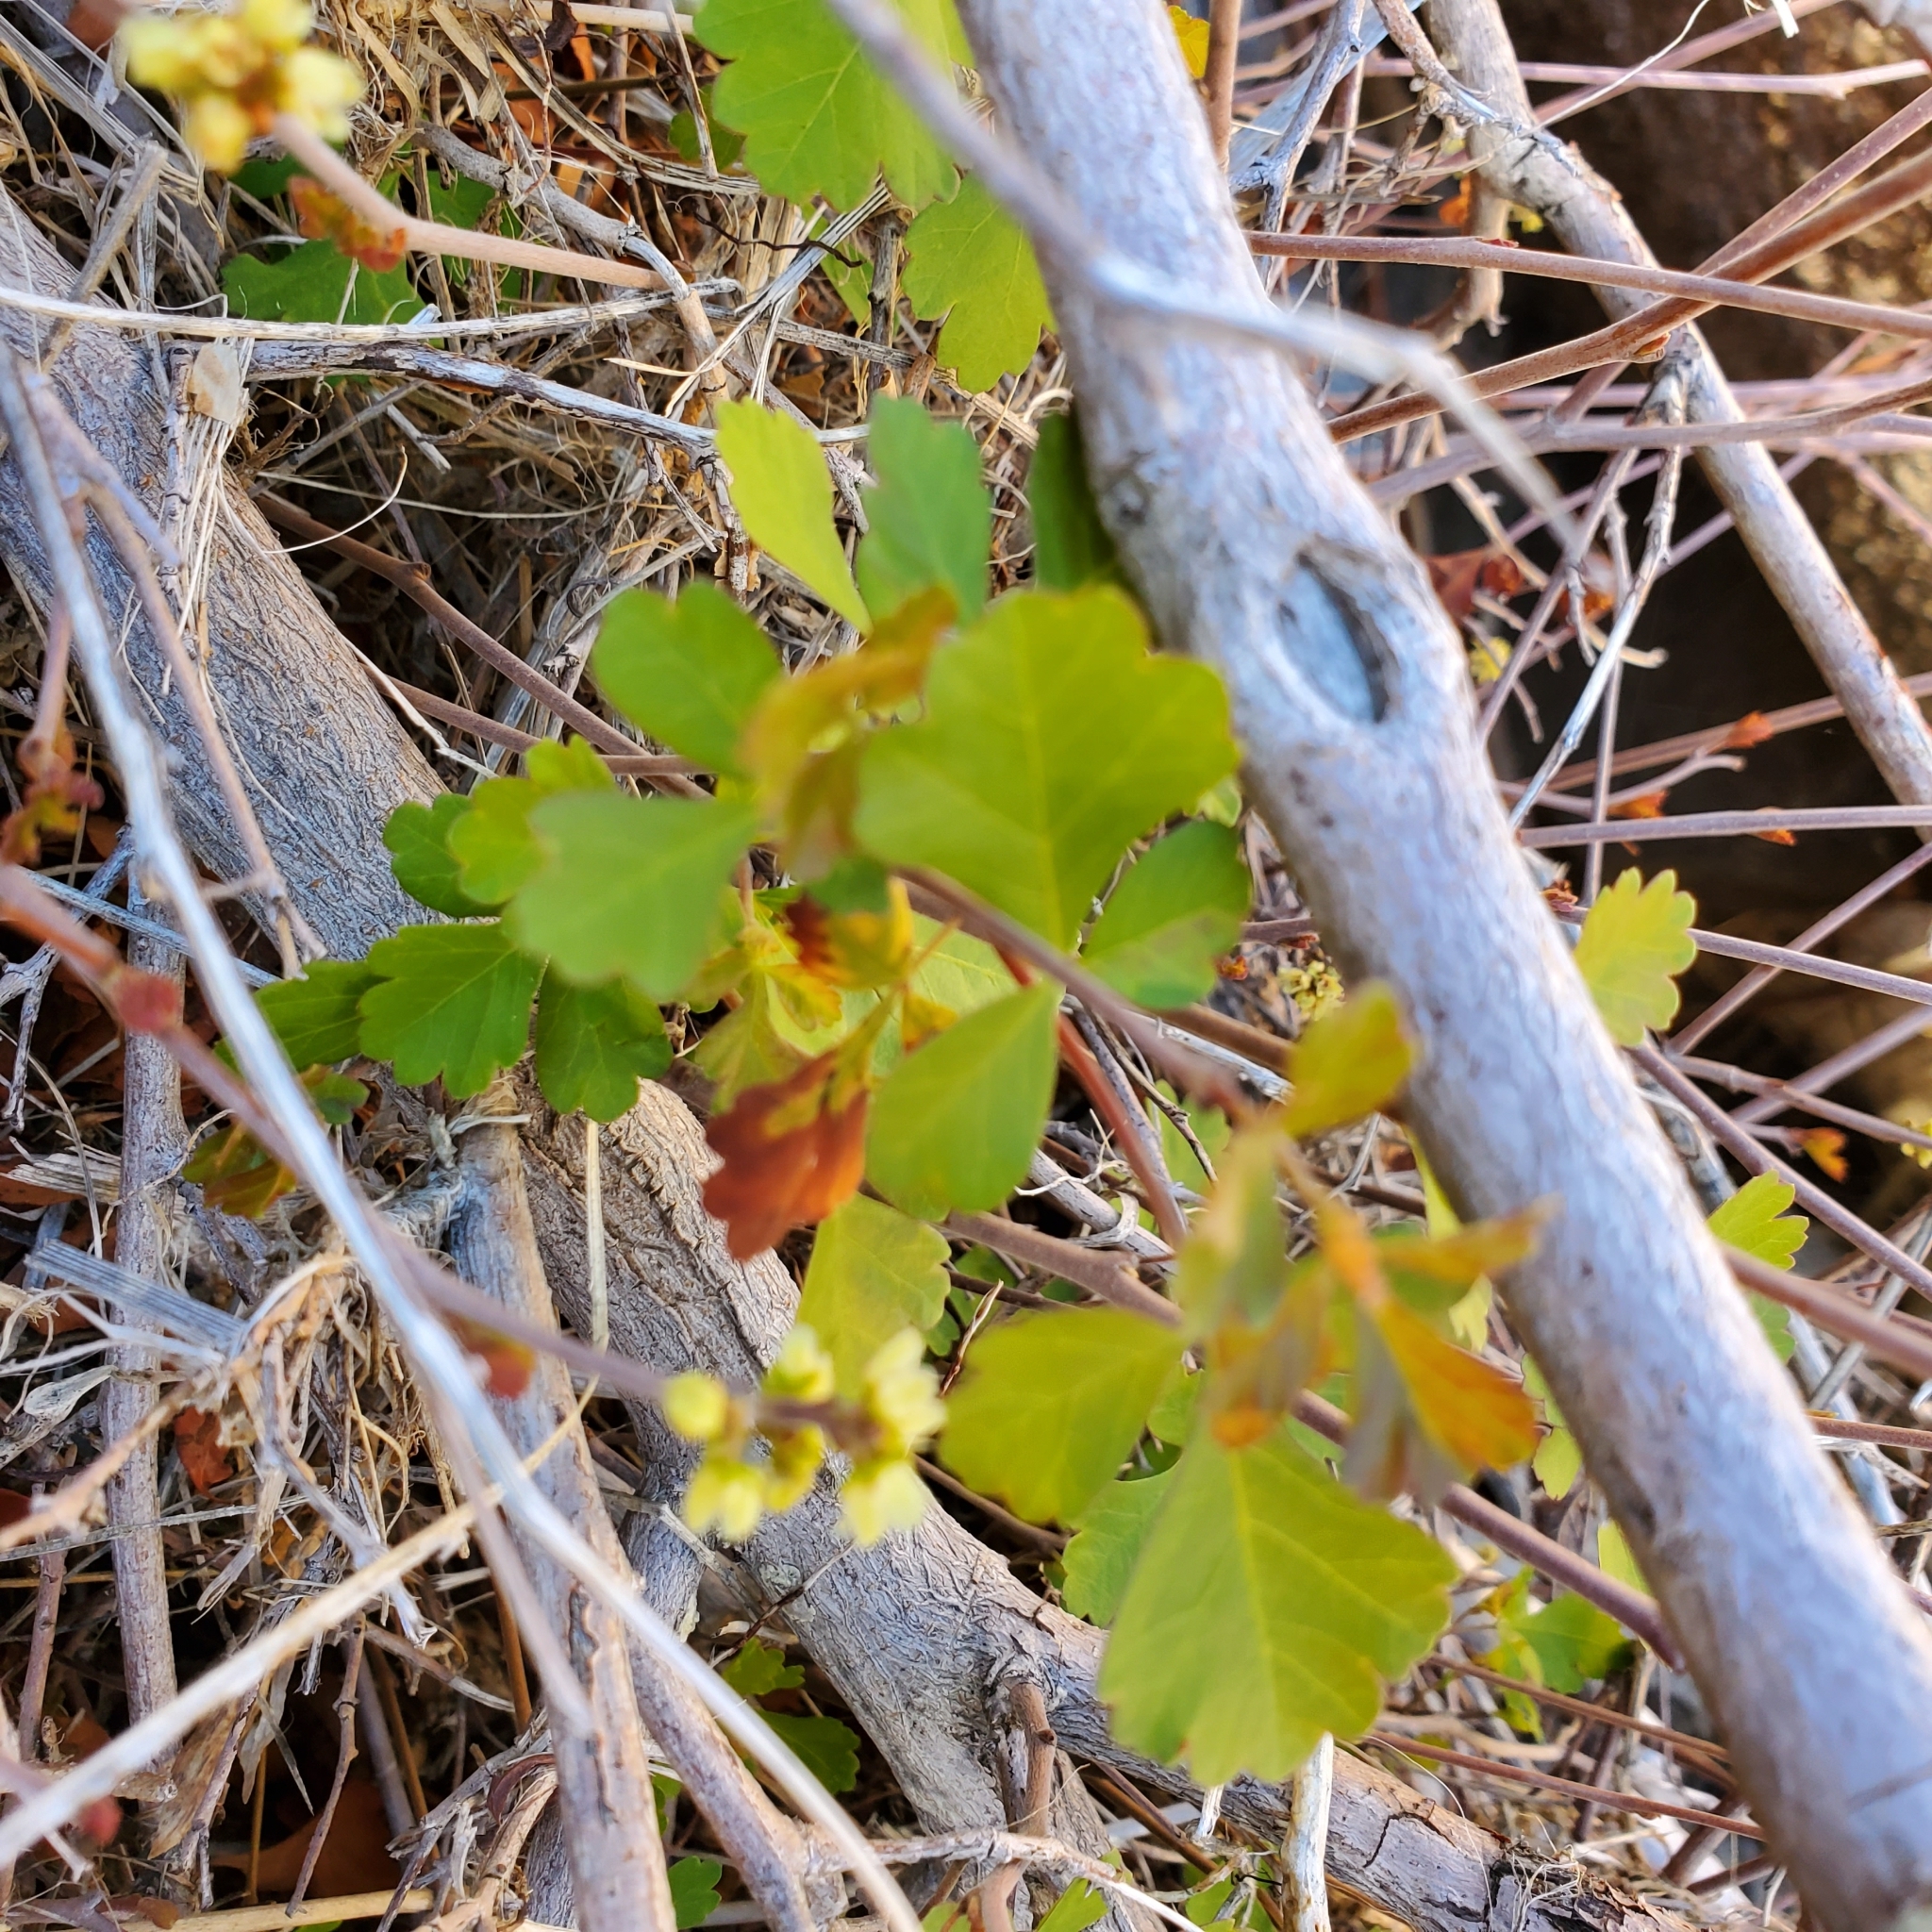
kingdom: Plantae
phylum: Tracheophyta
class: Magnoliopsida
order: Sapindales
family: Anacardiaceae
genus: Rhus
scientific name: Rhus aromatica
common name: Aromatic sumac
